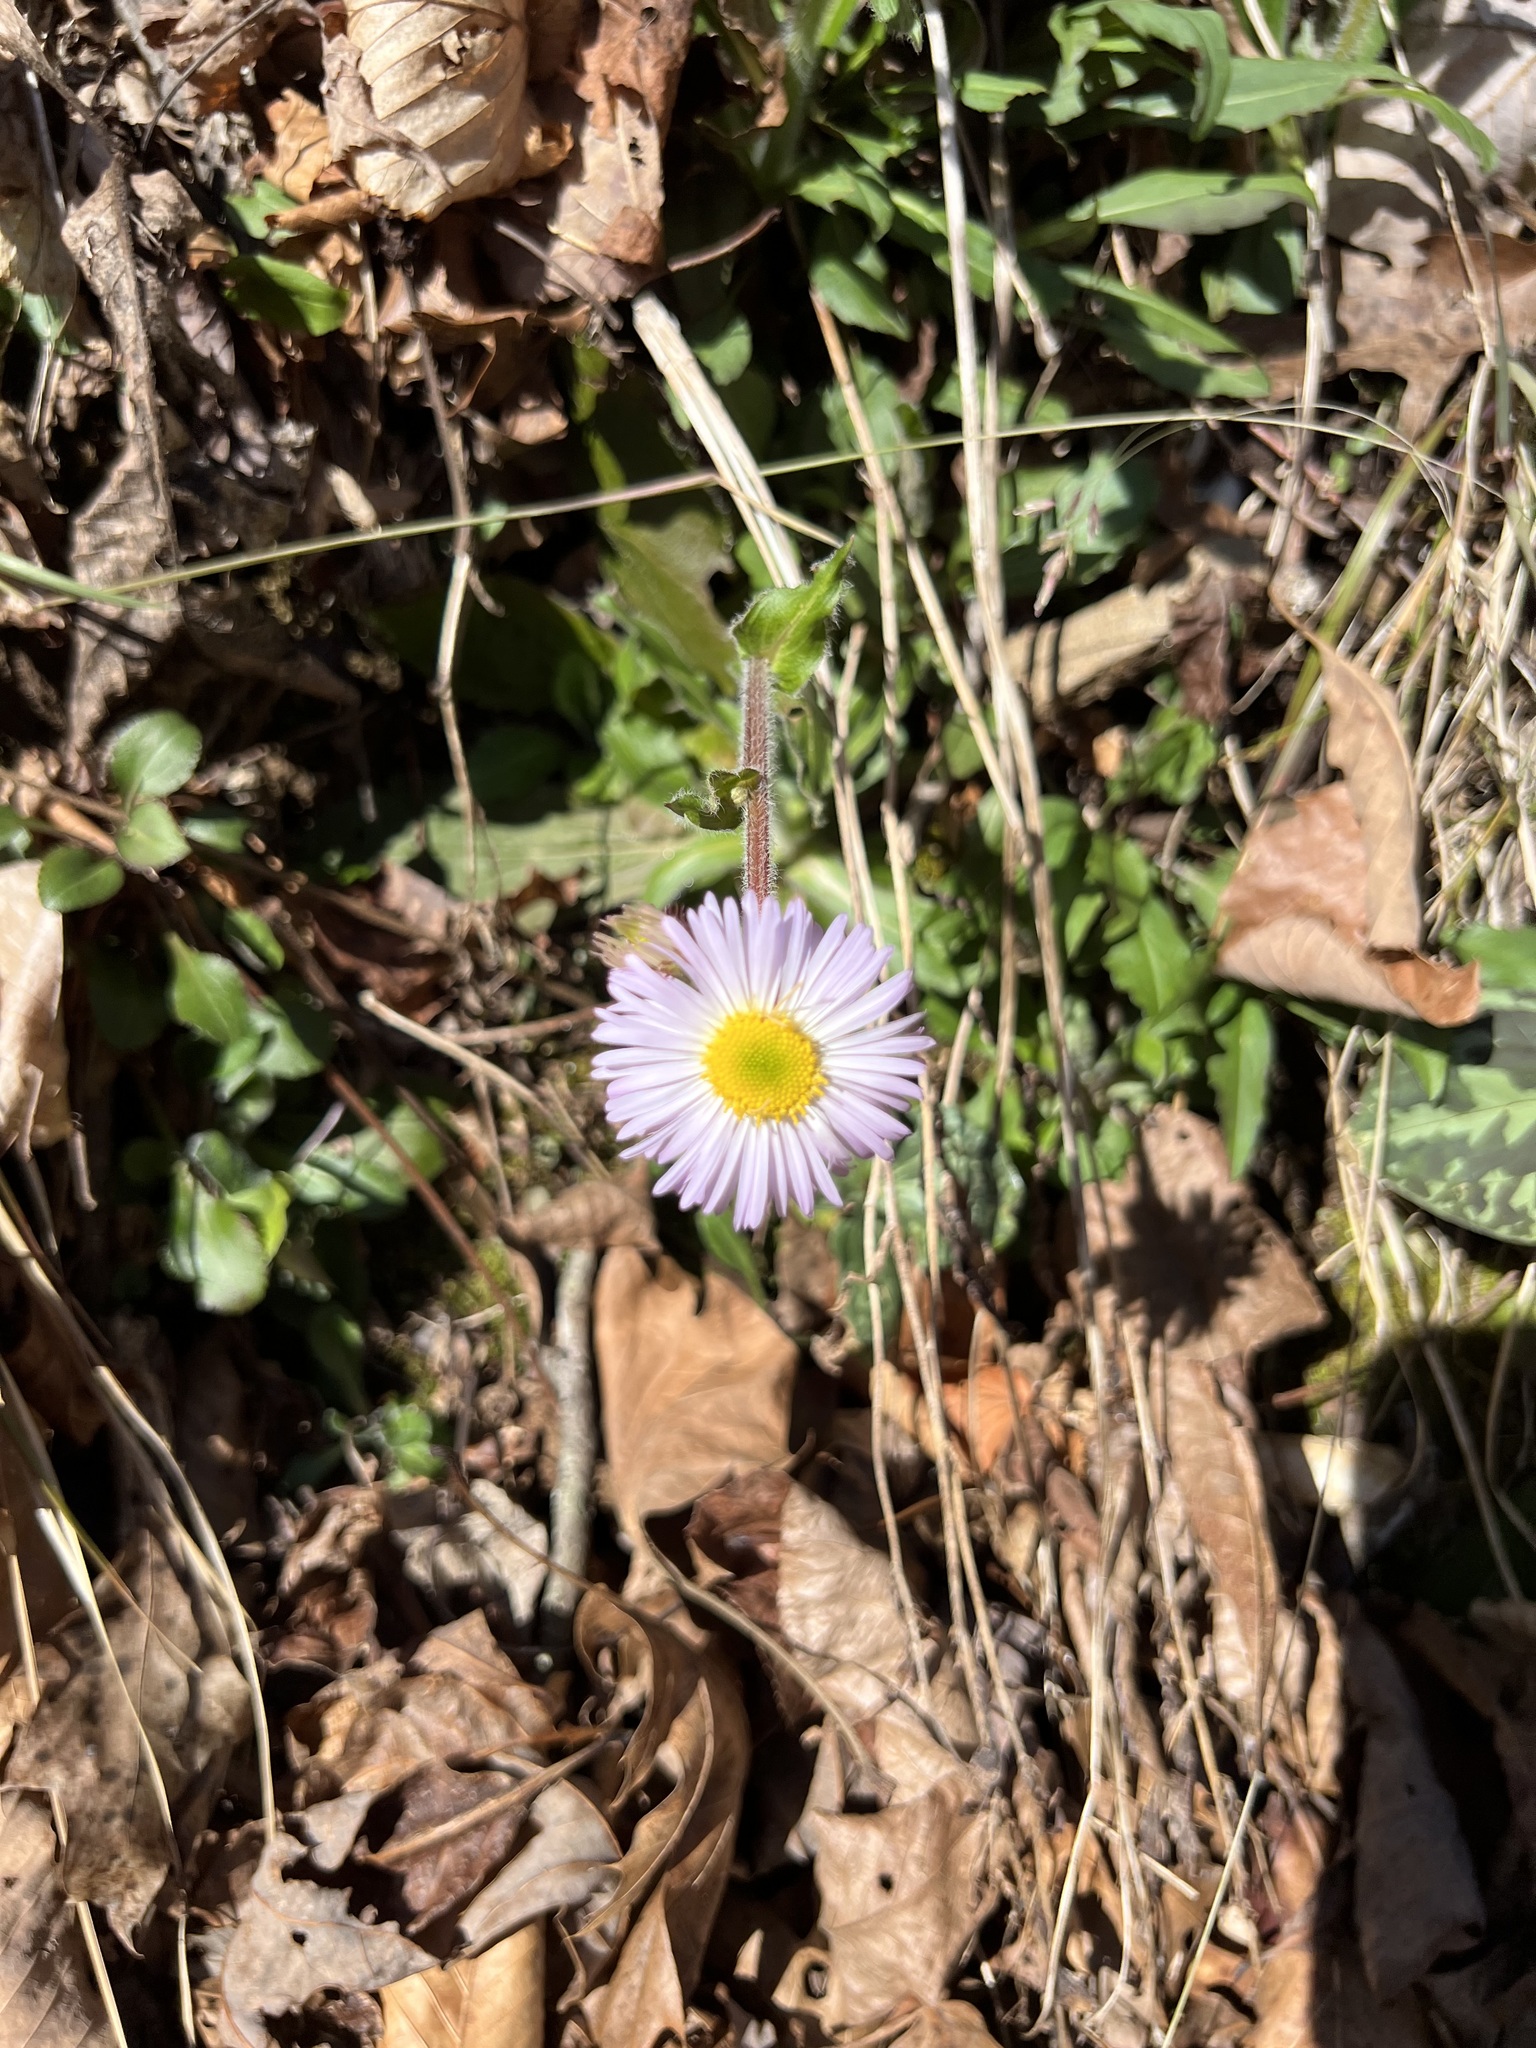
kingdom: Plantae
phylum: Tracheophyta
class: Magnoliopsida
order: Asterales
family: Asteraceae
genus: Erigeron
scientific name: Erigeron pulchellus
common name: Hairy fleabane
